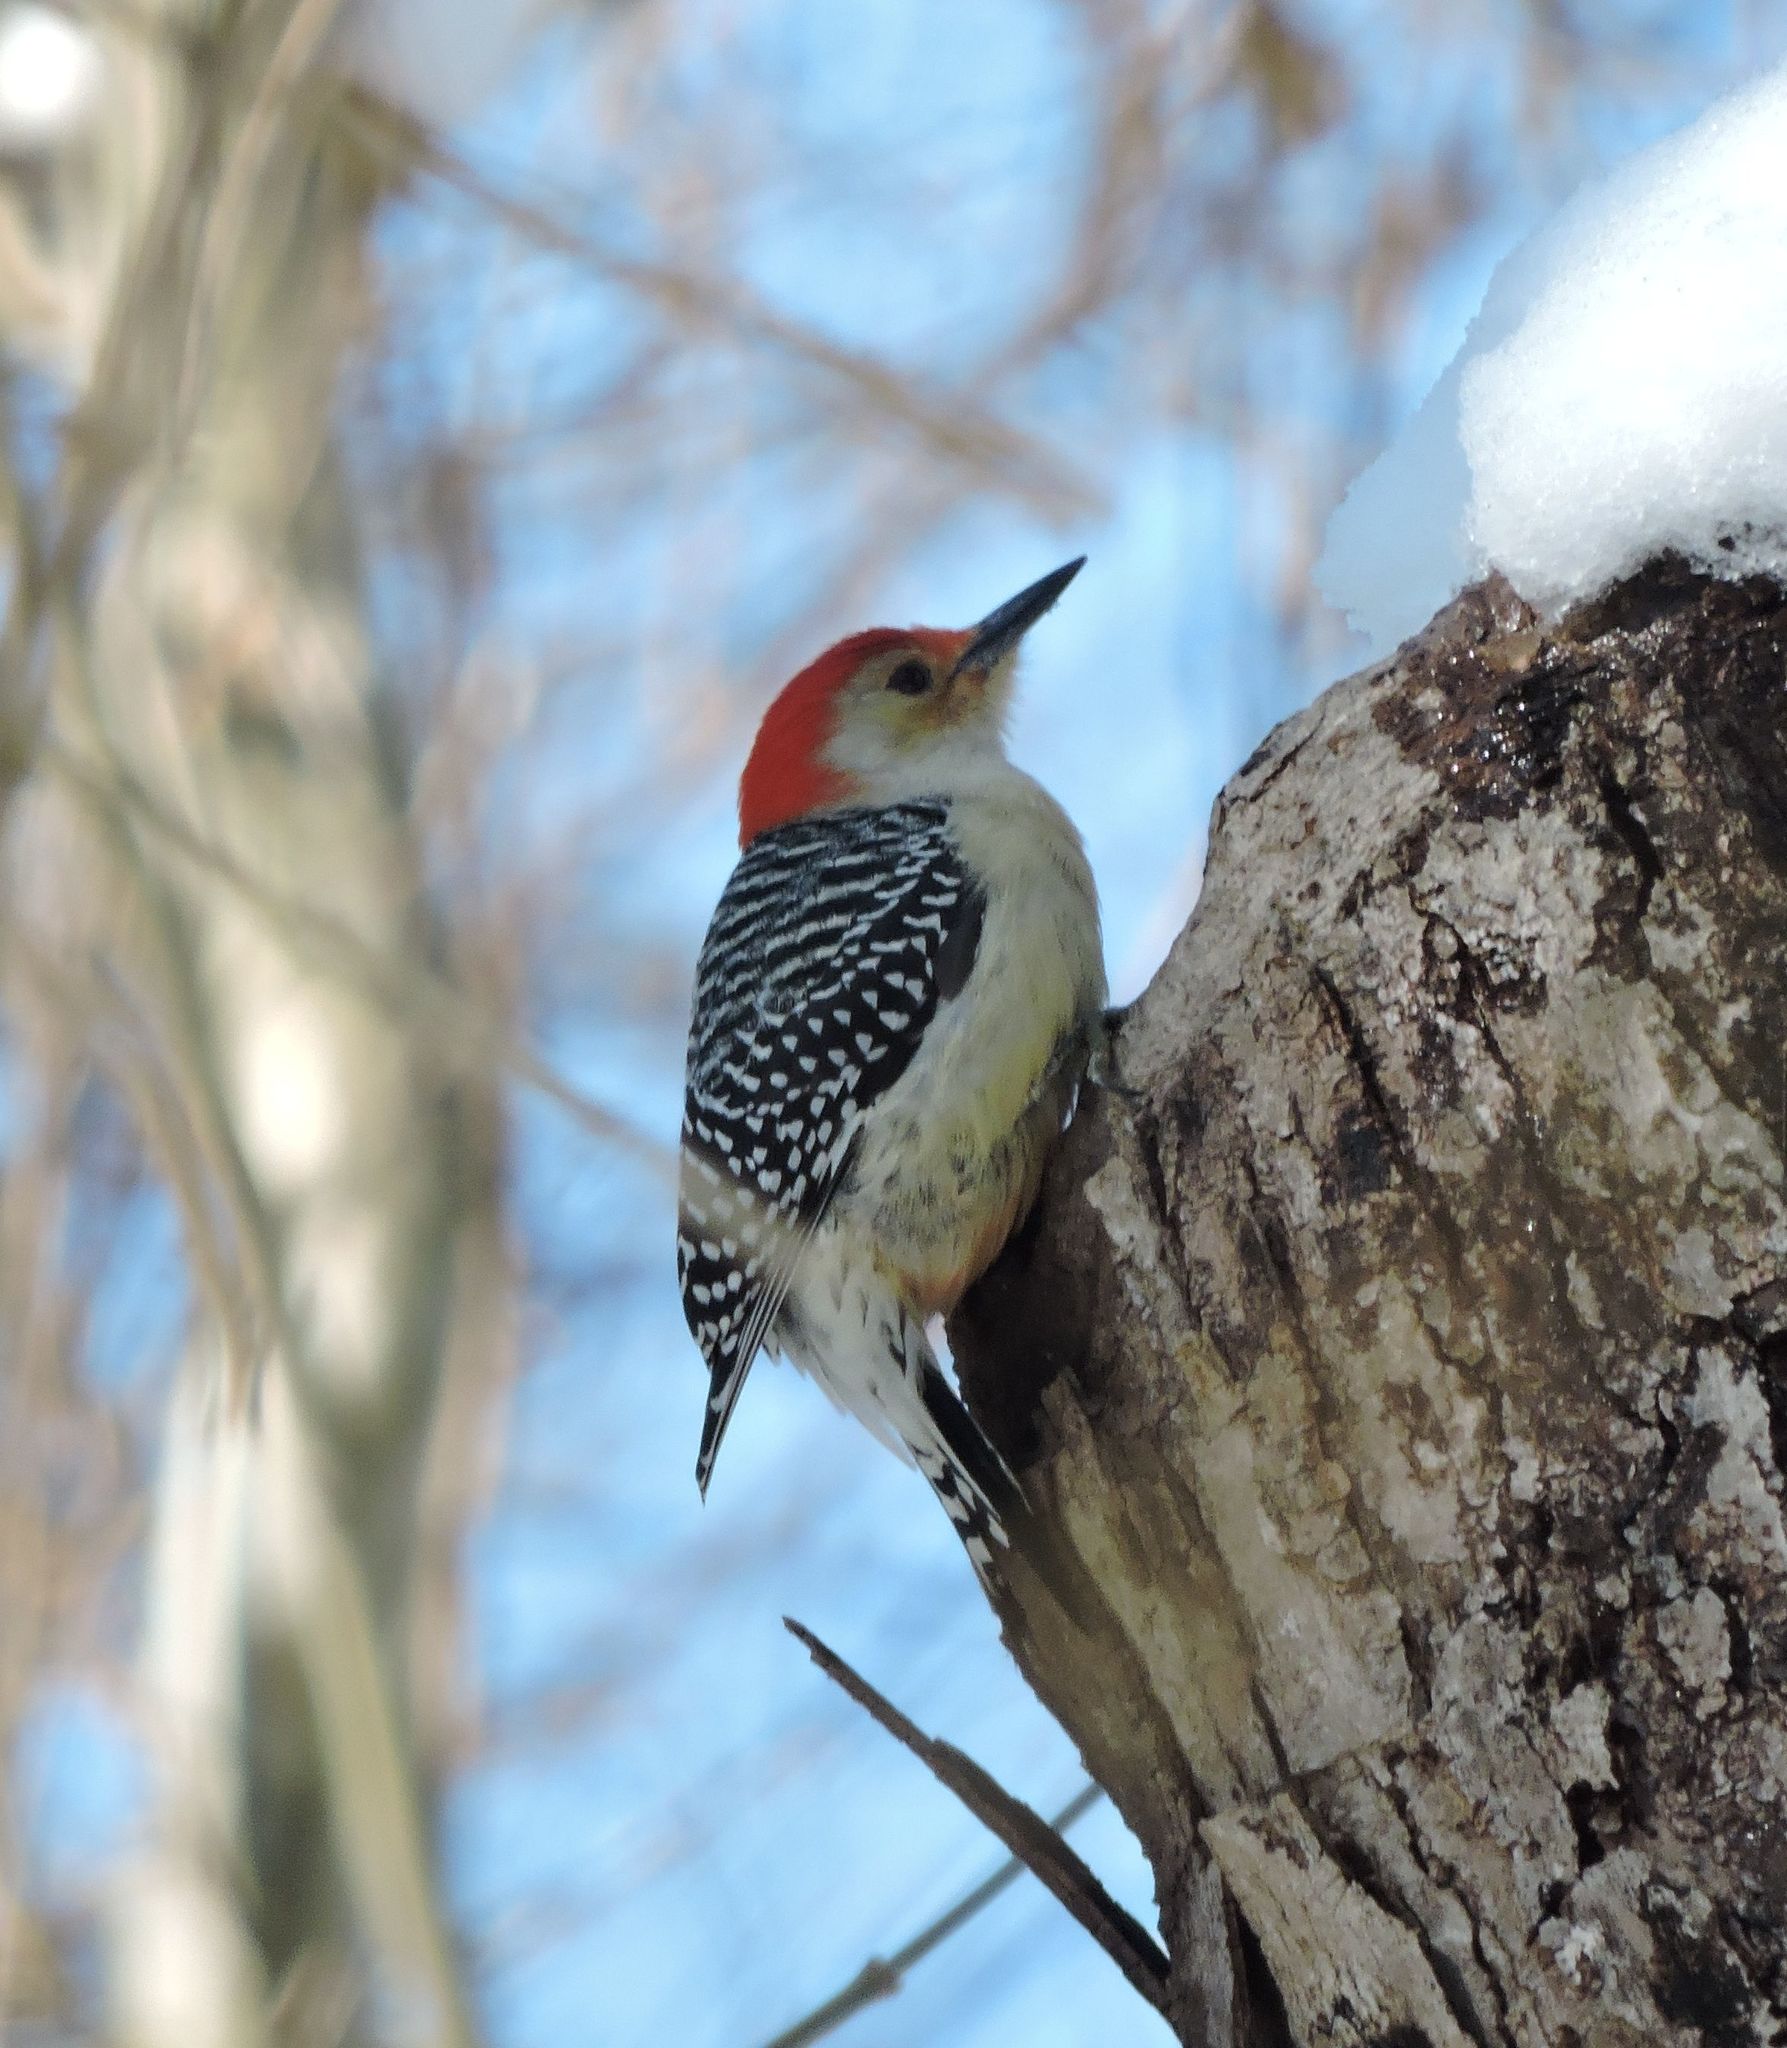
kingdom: Animalia
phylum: Chordata
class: Aves
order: Piciformes
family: Picidae
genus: Melanerpes
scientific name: Melanerpes carolinus
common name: Red-bellied woodpecker
